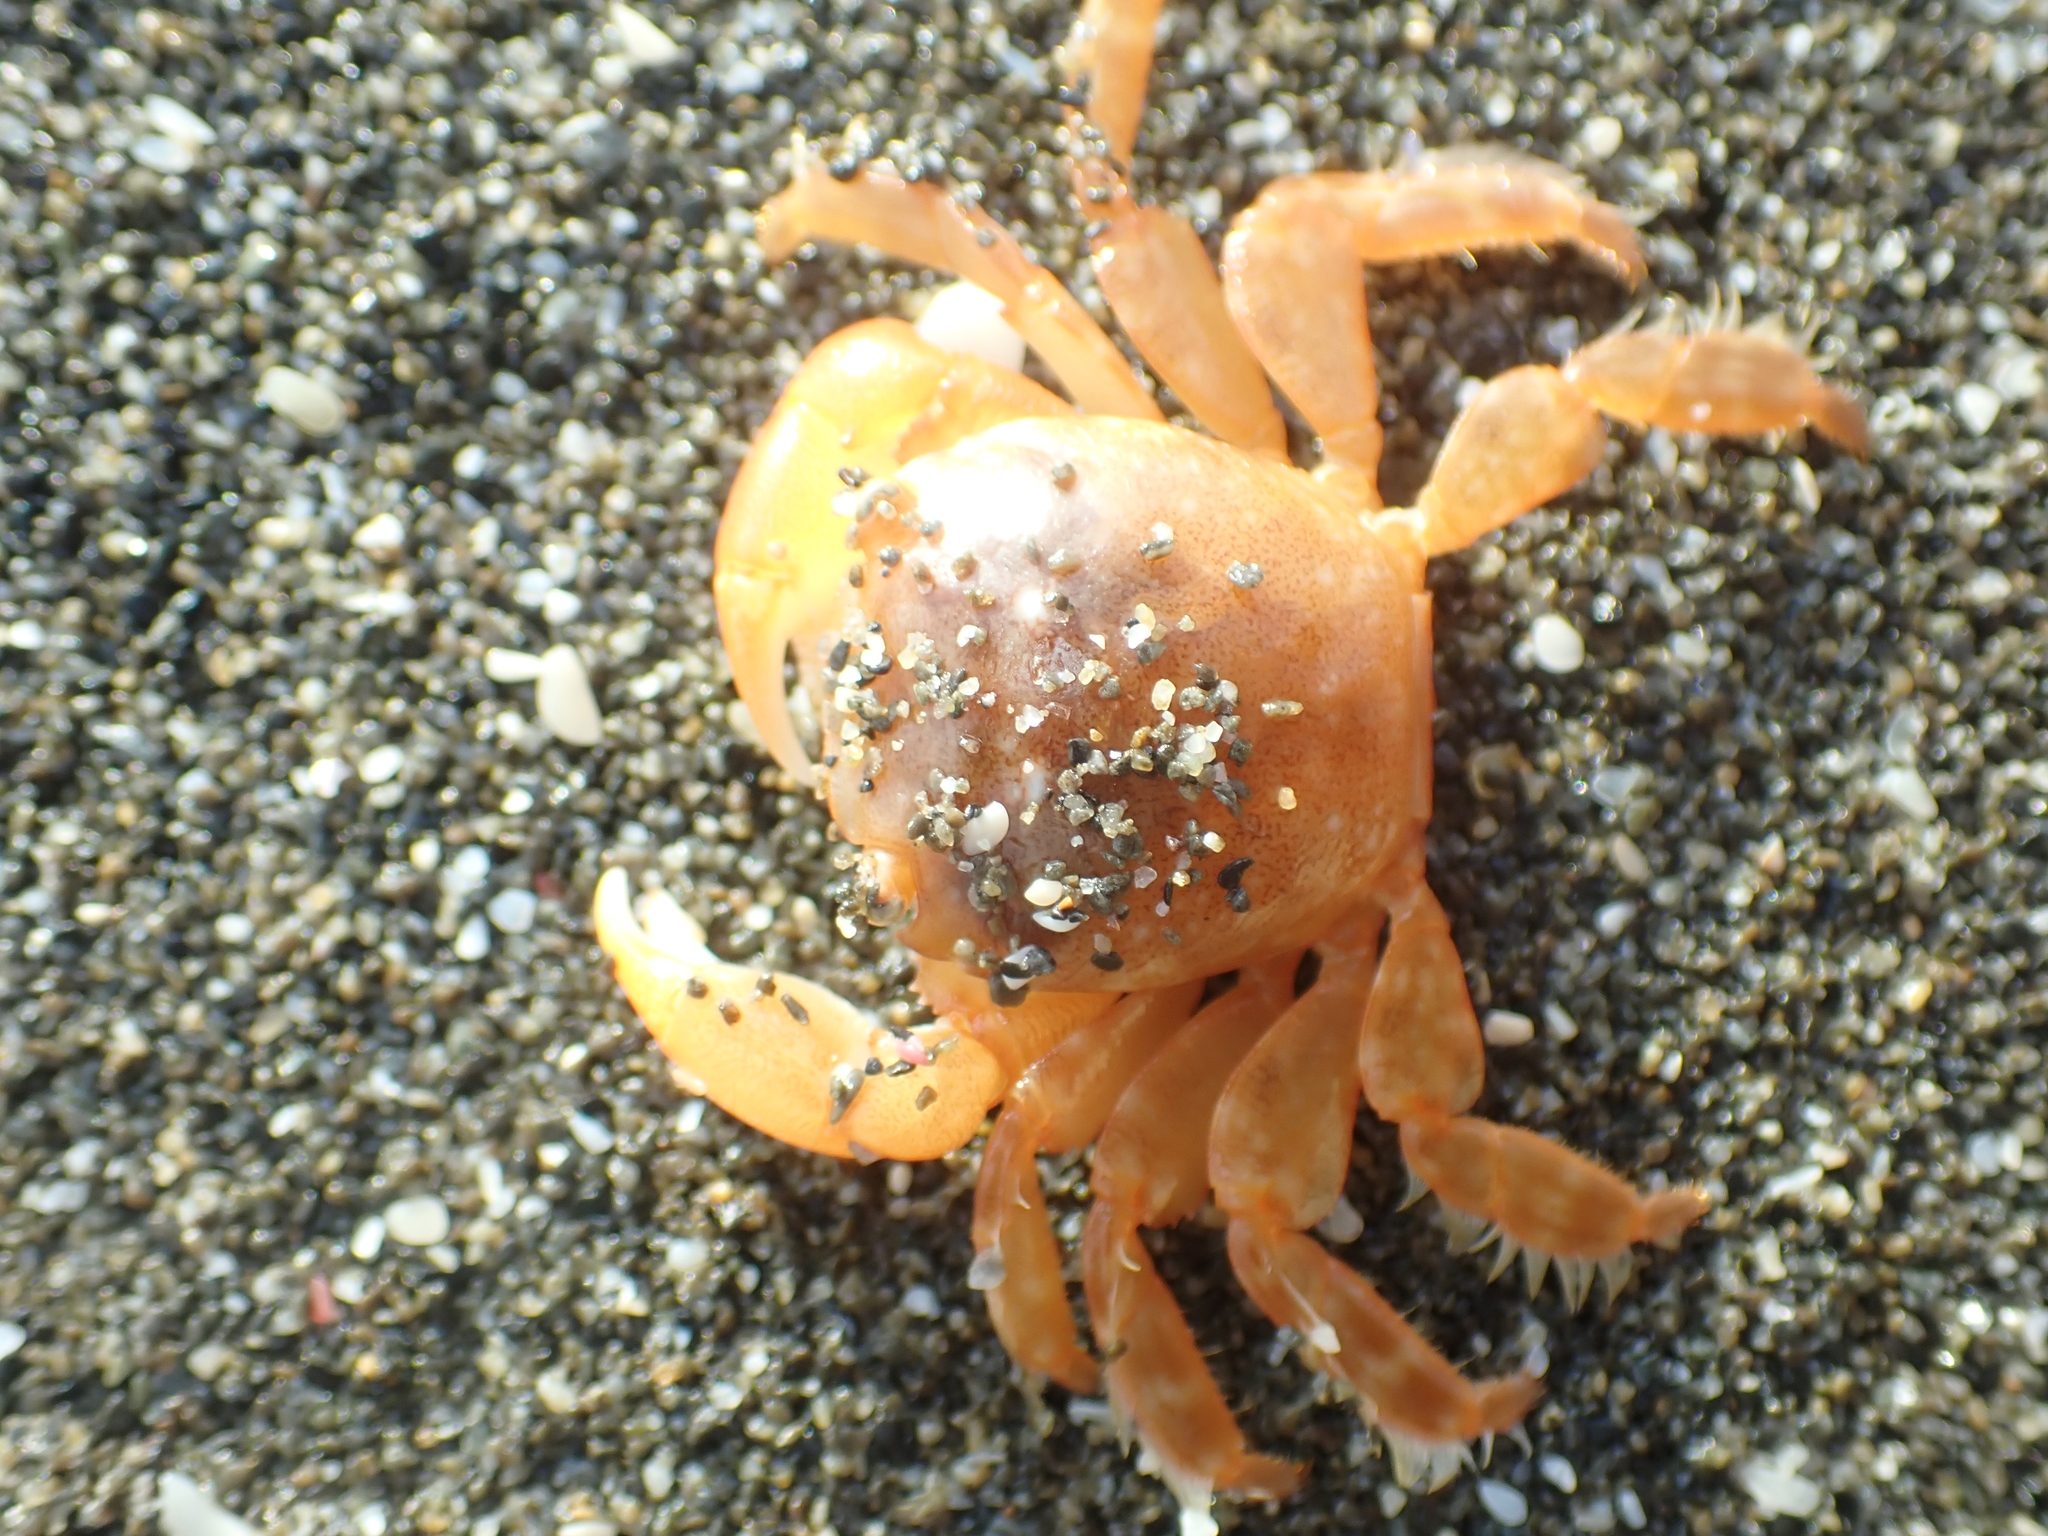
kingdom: Animalia
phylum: Arthropoda
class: Malacostraca
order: Decapoda
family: Grapsidae
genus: Planes
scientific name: Planes minutus
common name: Gulf weed crab
